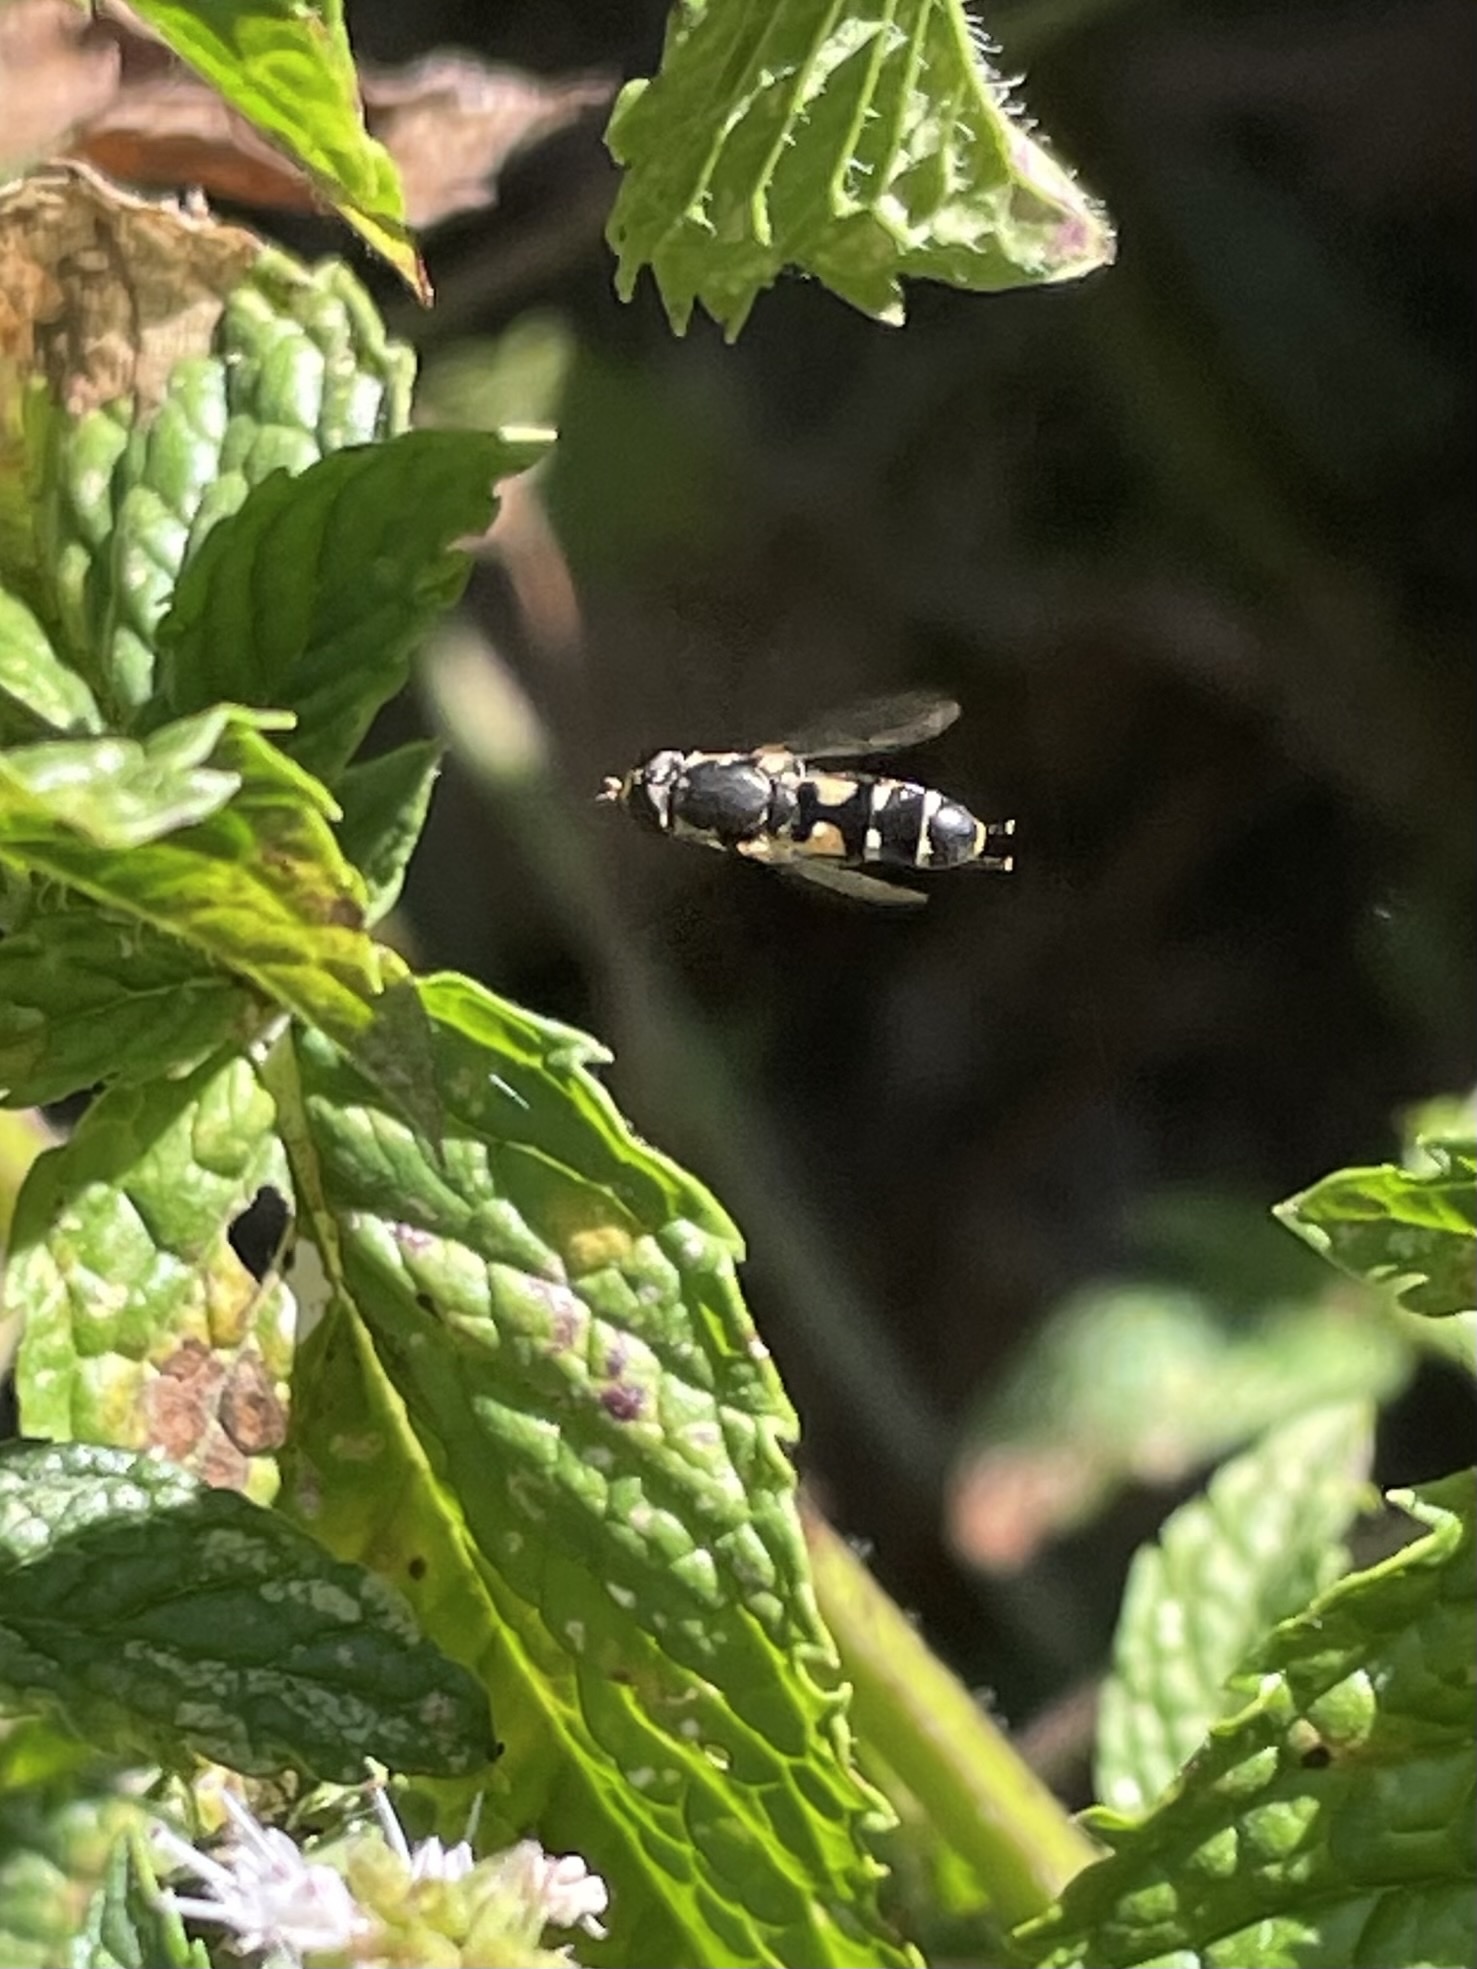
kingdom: Animalia
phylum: Arthropoda
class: Insecta
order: Diptera
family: Syrphidae
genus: Syritta
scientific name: Syritta pipiens
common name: Hover fly
